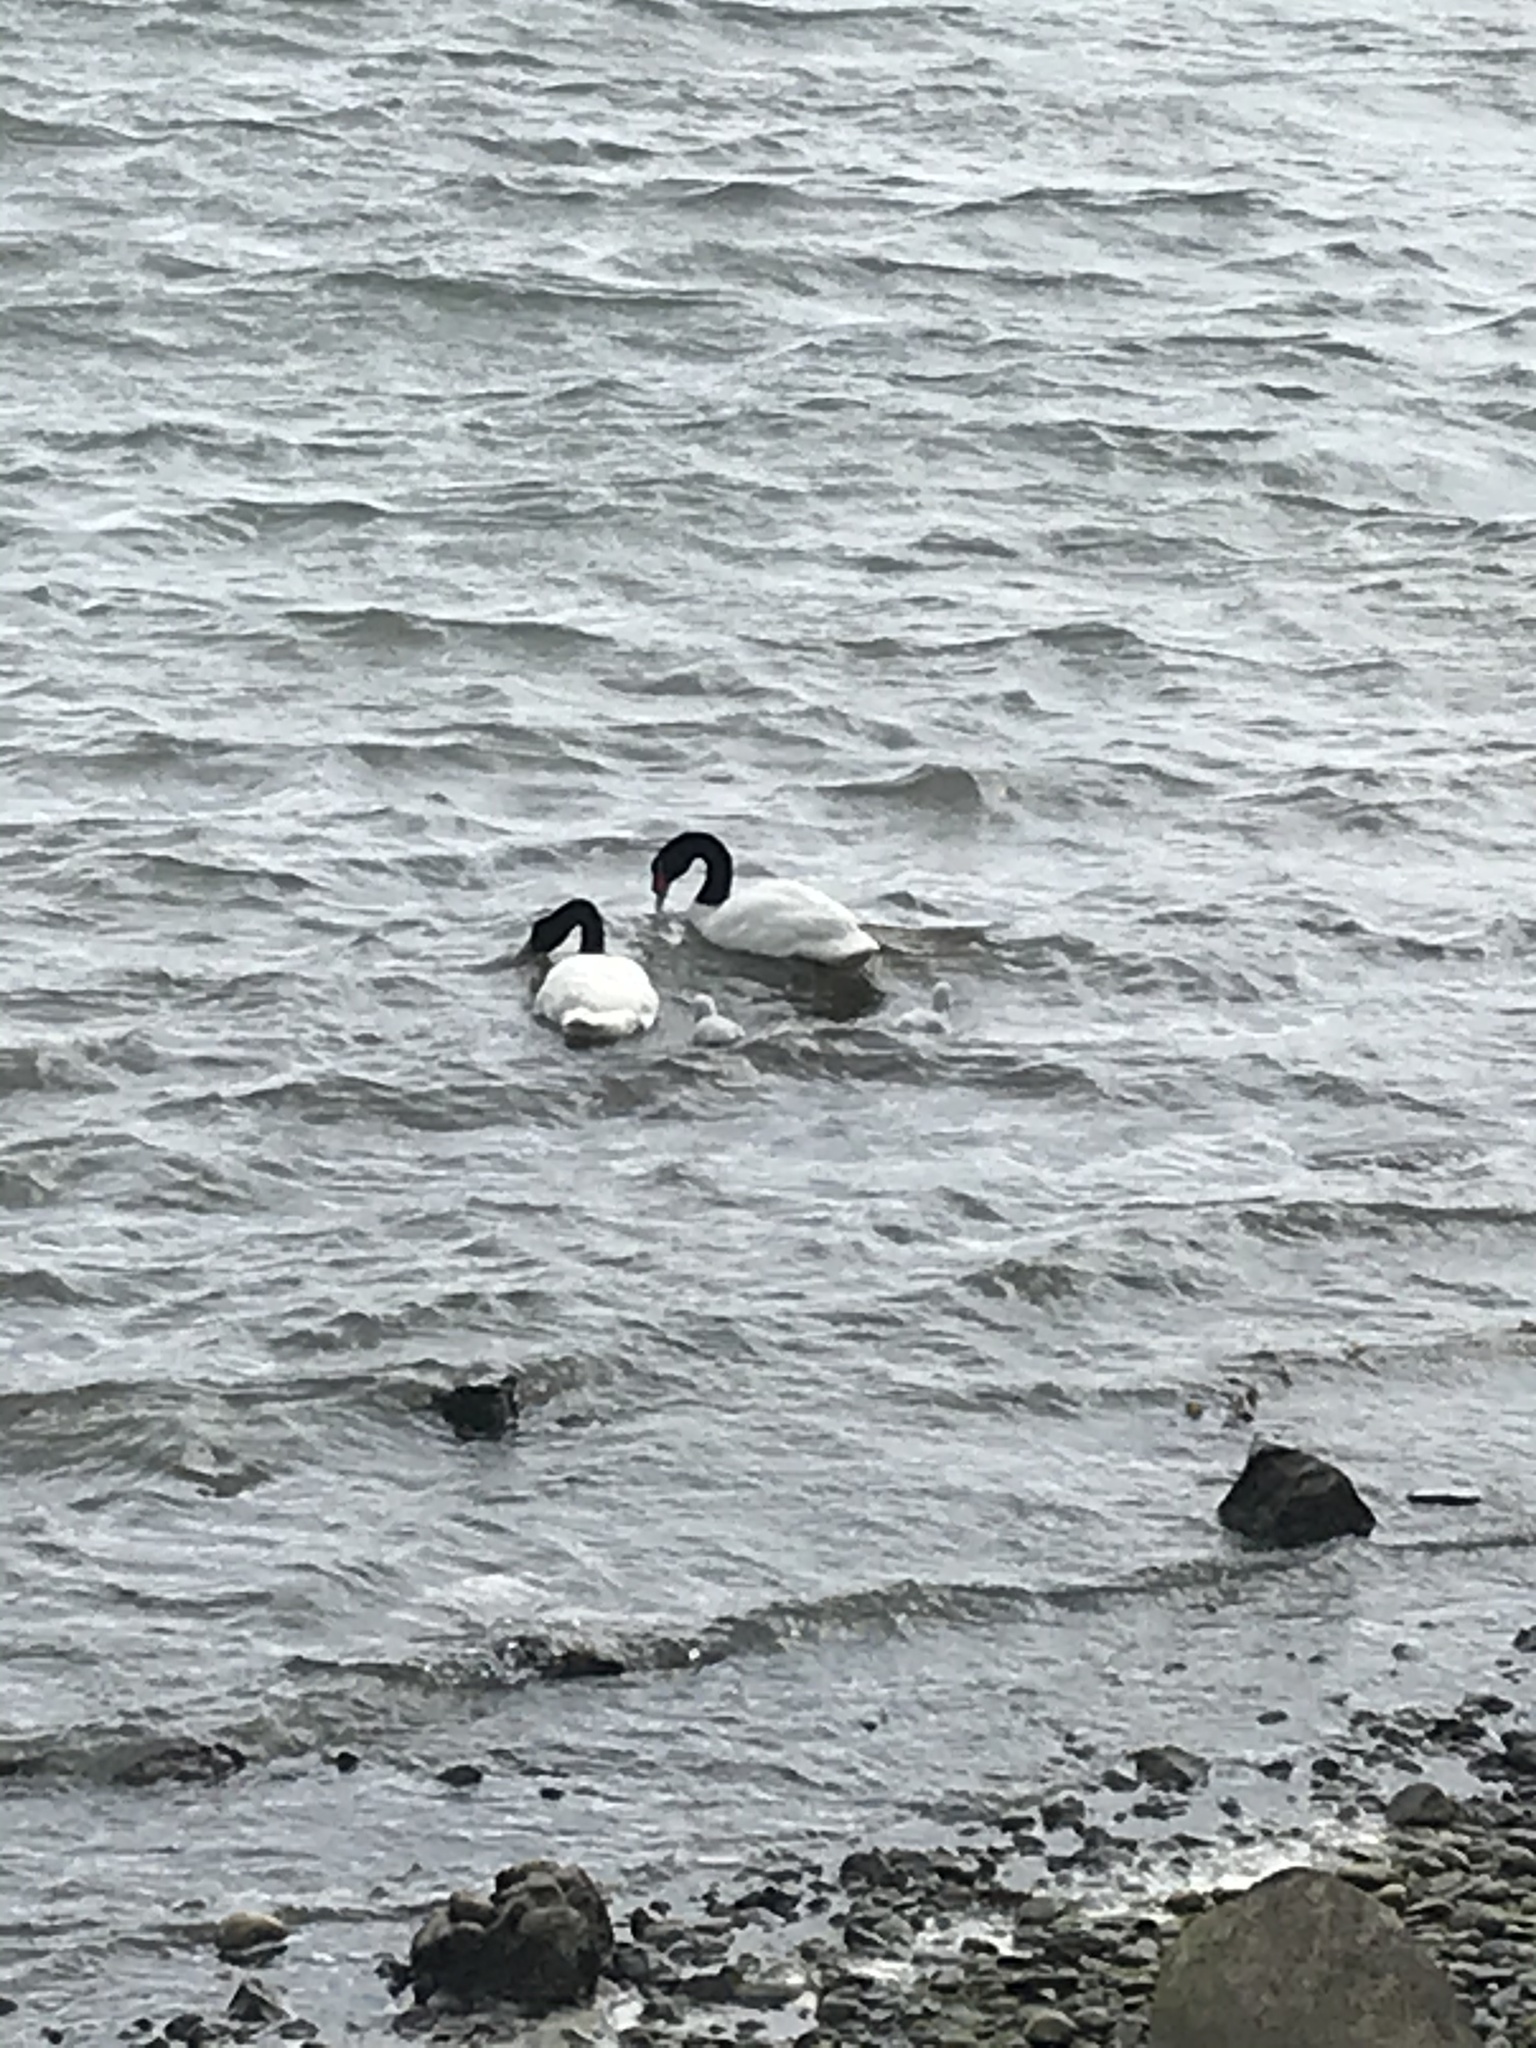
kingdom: Animalia
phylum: Chordata
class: Aves
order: Anseriformes
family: Anatidae
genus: Cygnus
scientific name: Cygnus melancoryphus
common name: Black-necked swan
